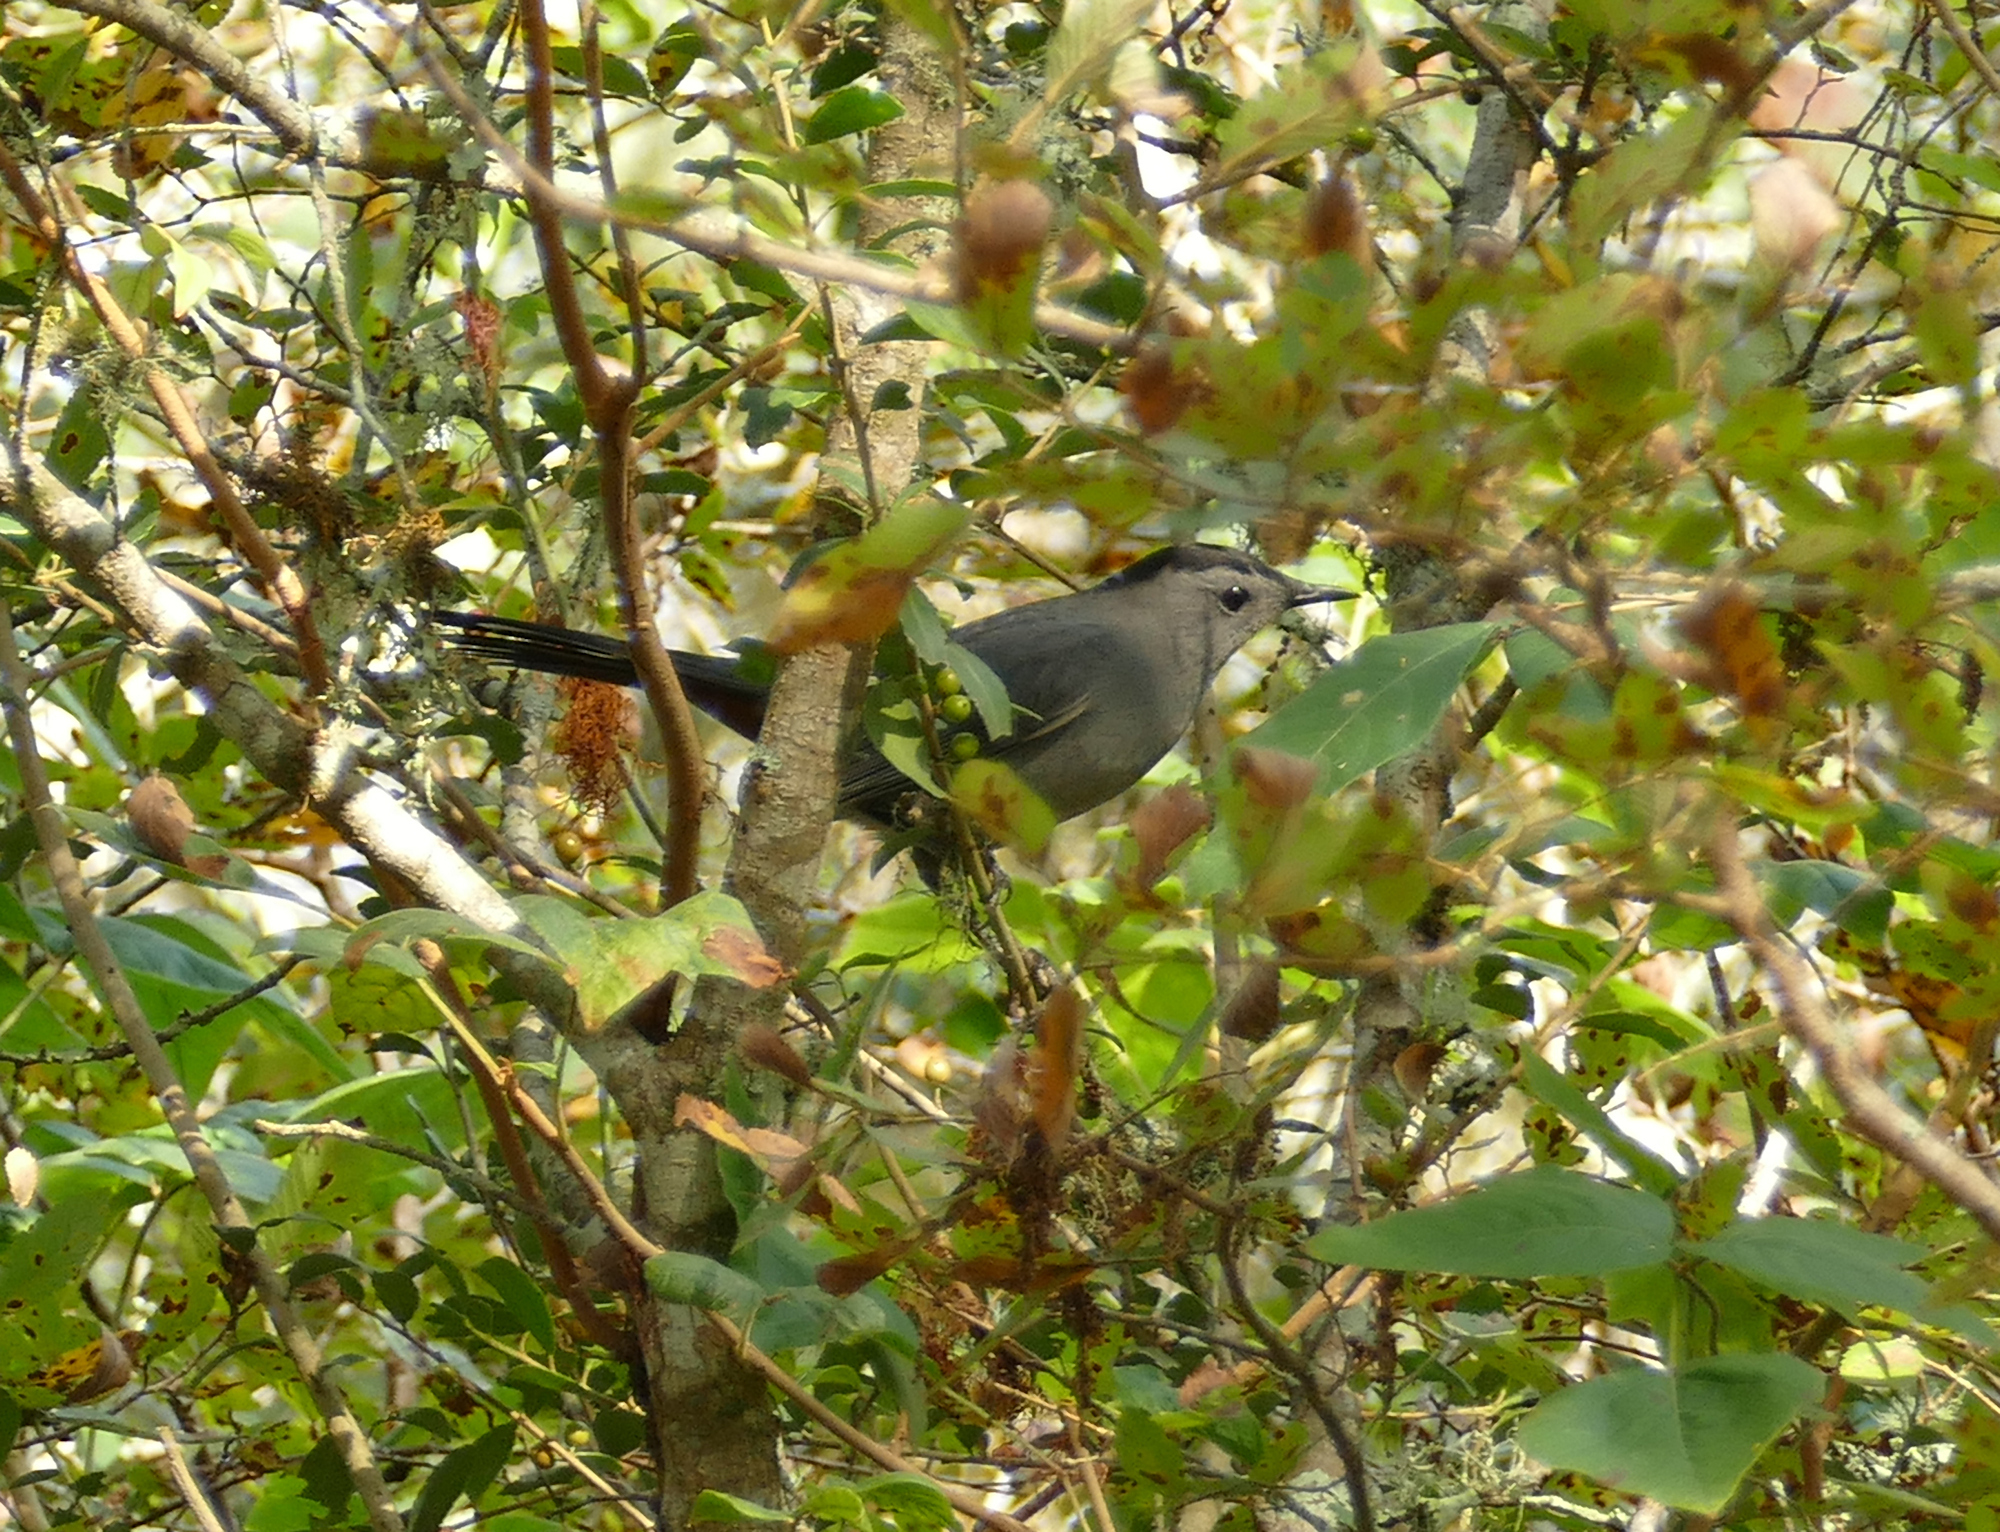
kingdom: Animalia
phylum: Chordata
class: Aves
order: Passeriformes
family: Mimidae
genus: Dumetella
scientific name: Dumetella carolinensis
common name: Gray catbird
